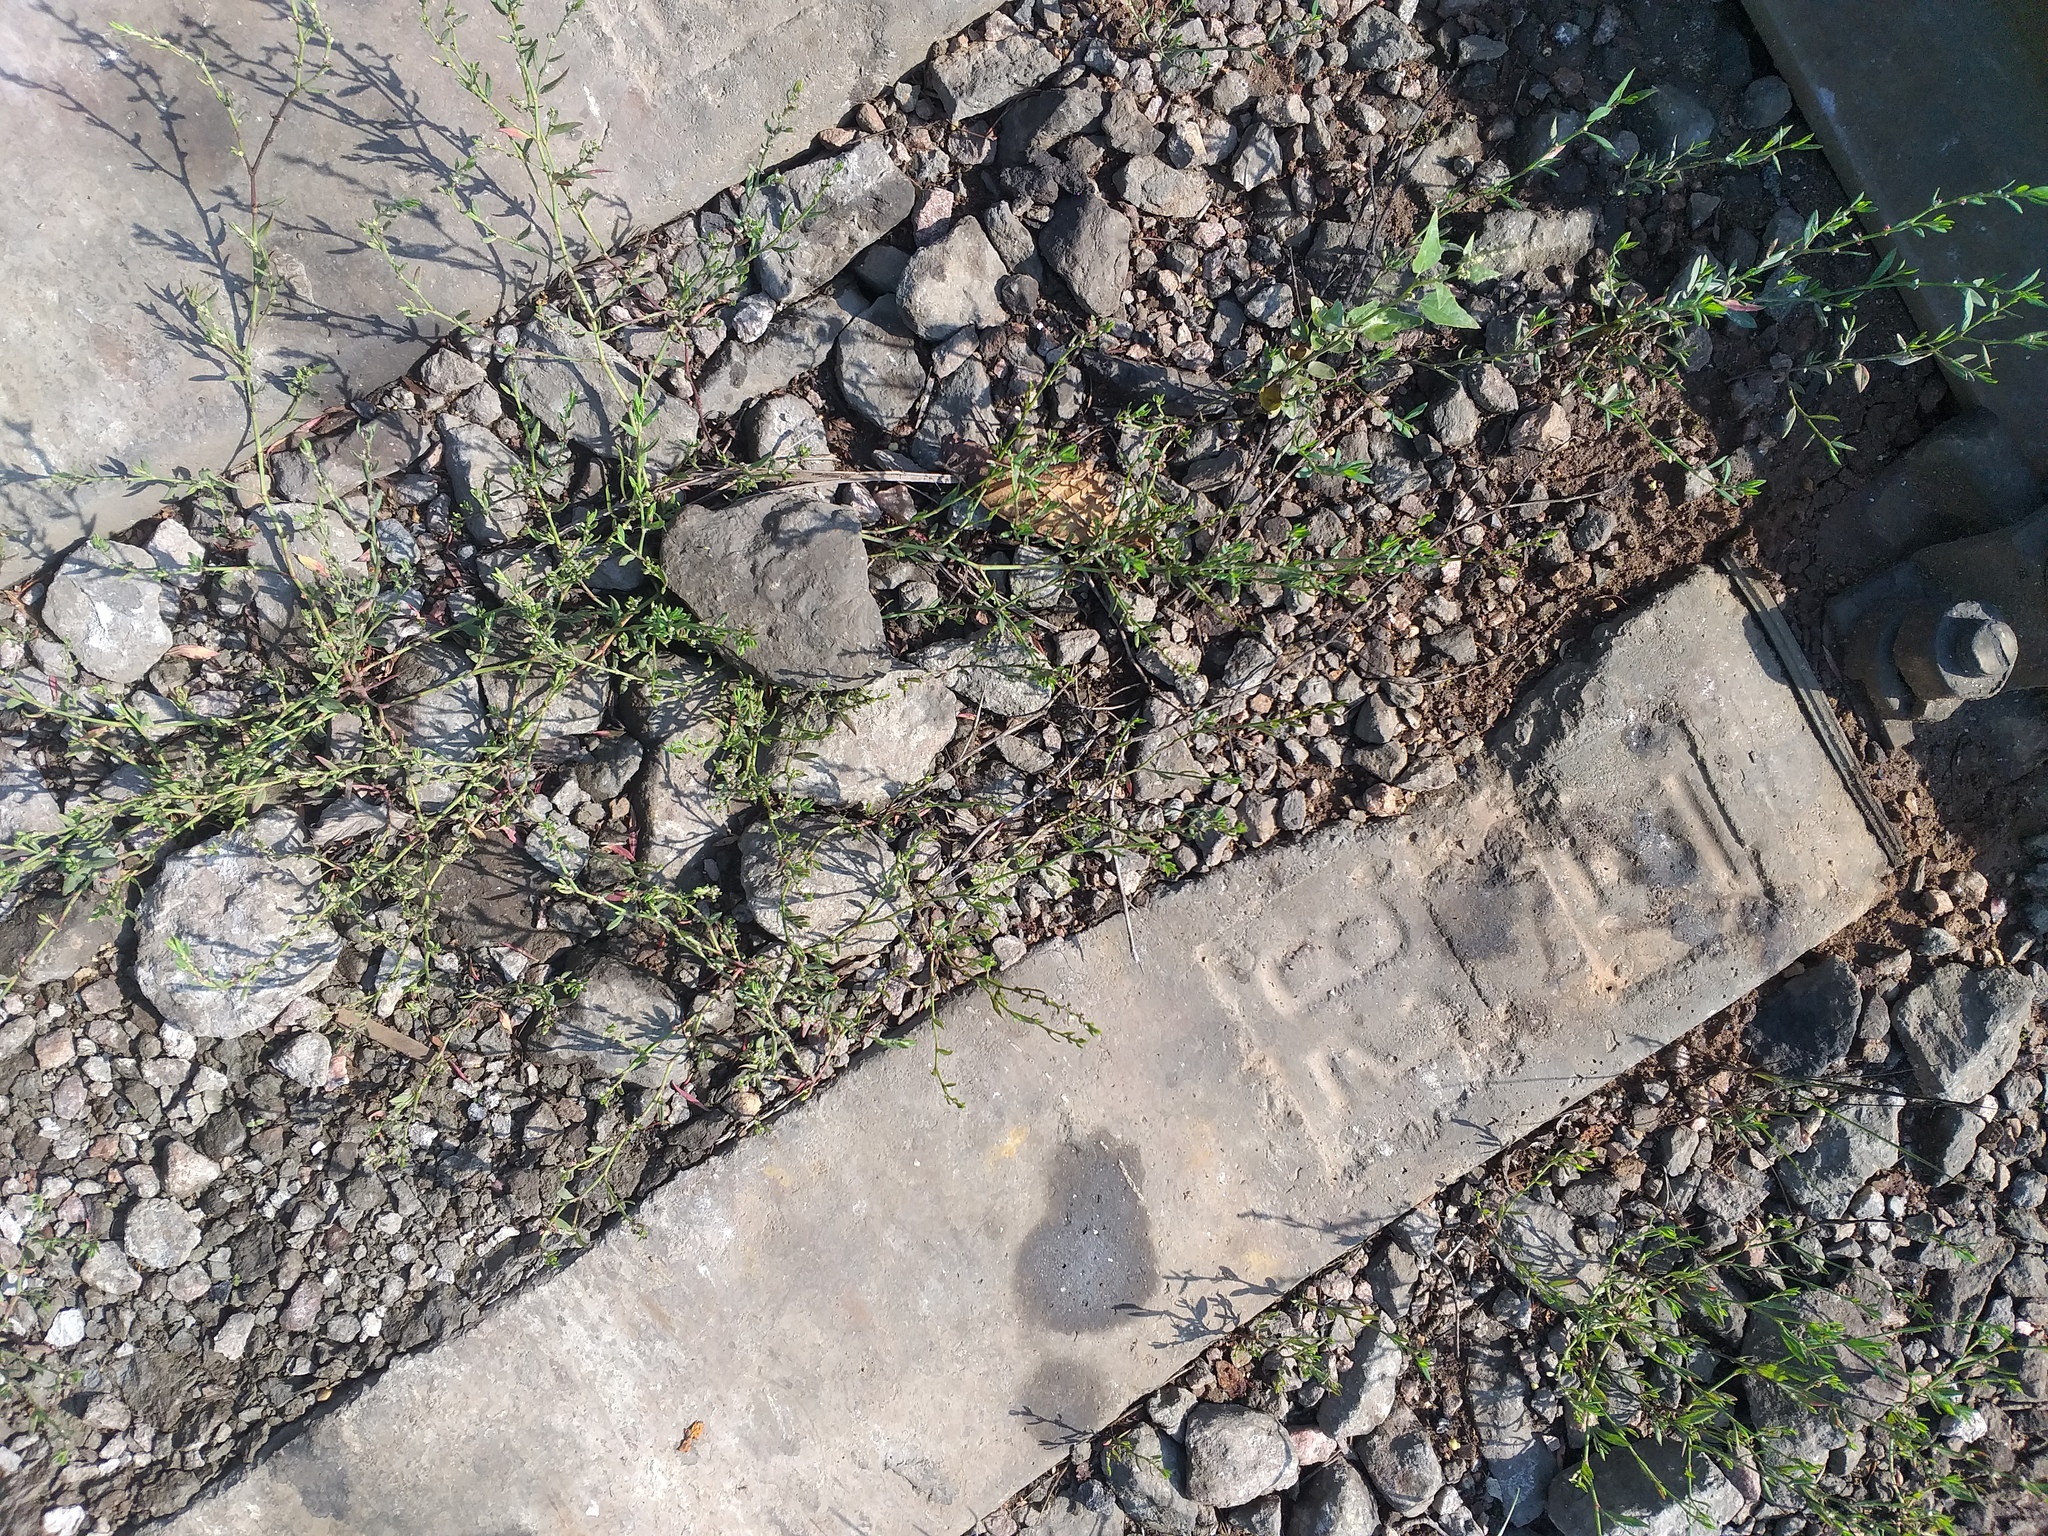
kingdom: Plantae
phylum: Tracheophyta
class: Magnoliopsida
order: Caryophyllales
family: Polygonaceae
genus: Polygonum
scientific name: Polygonum
